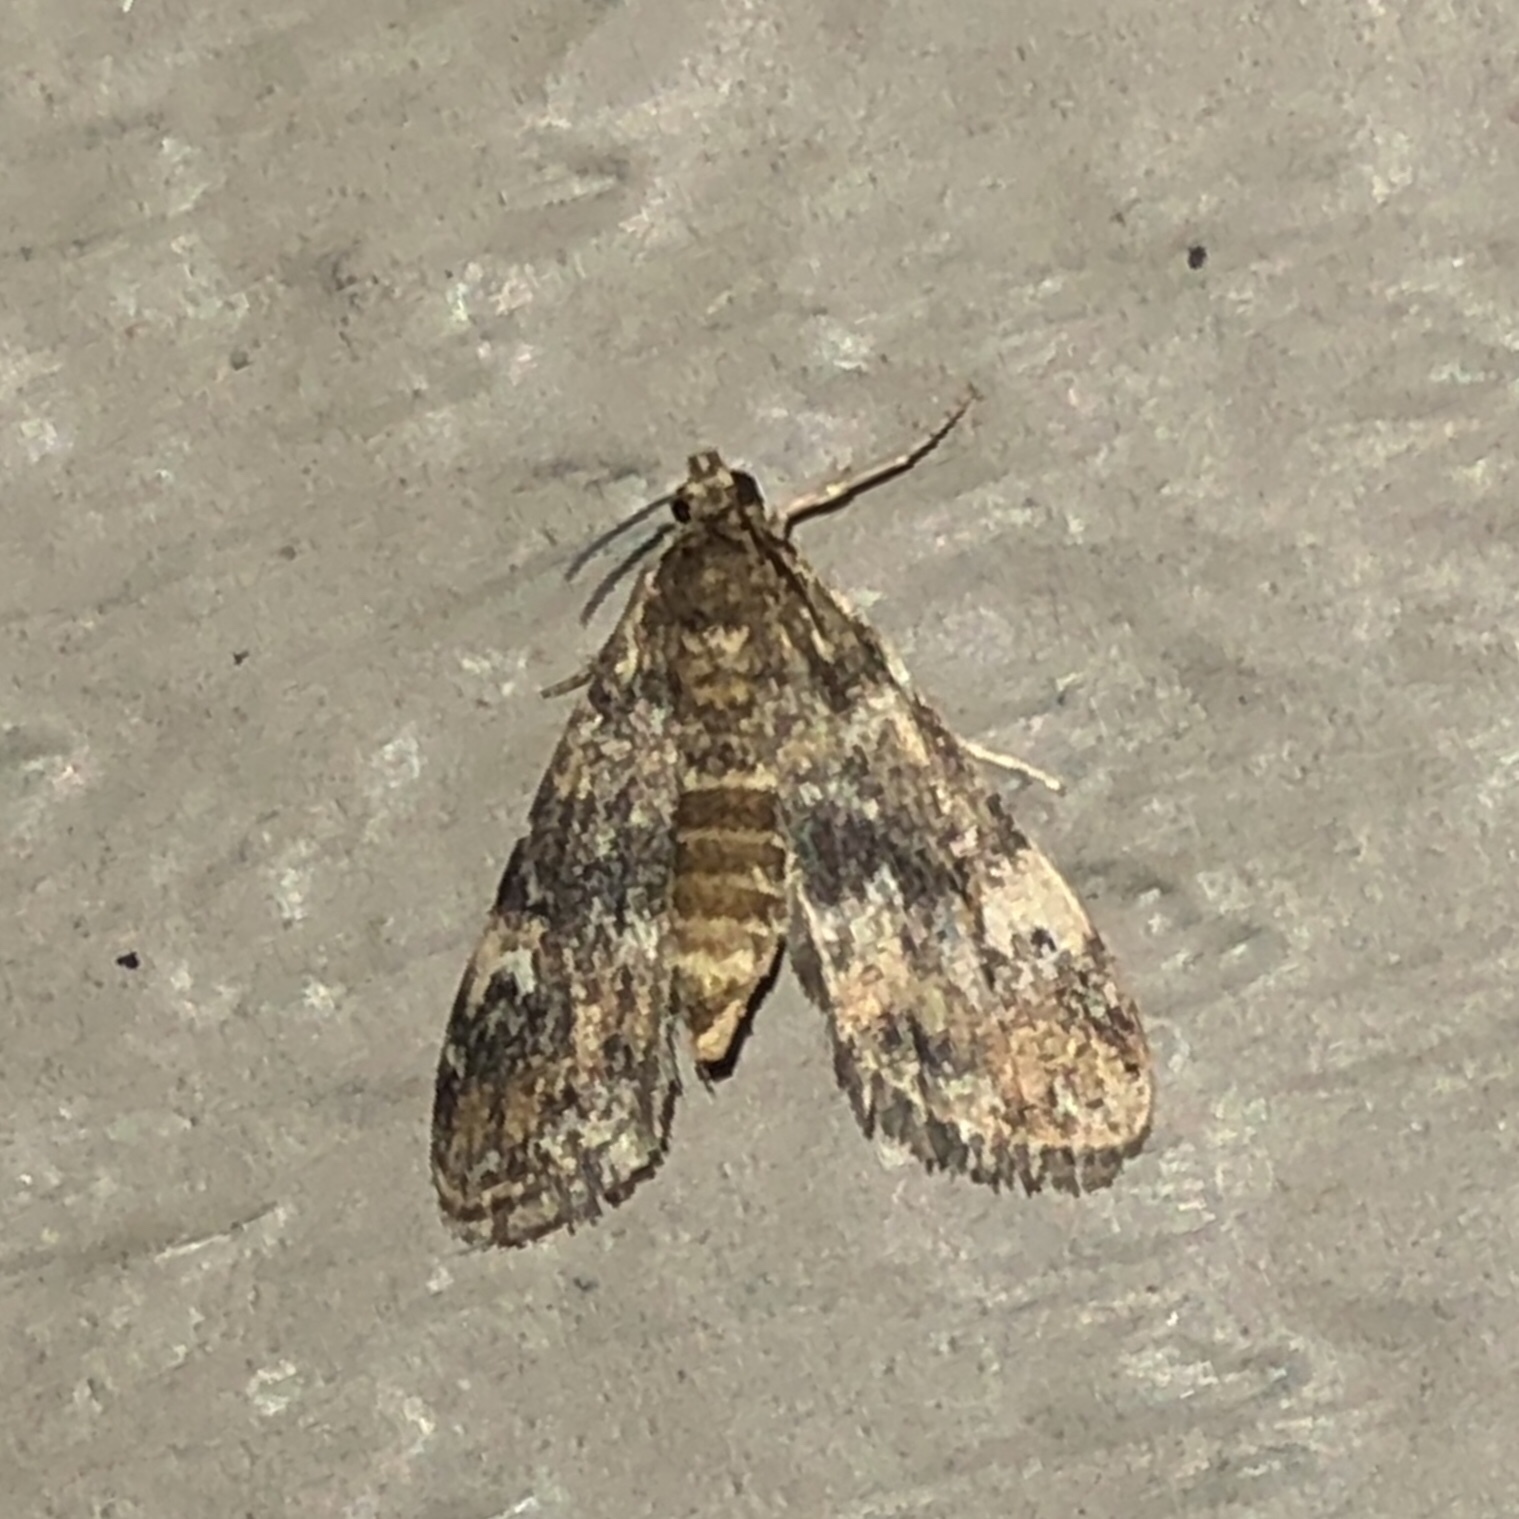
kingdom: Animalia
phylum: Arthropoda
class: Insecta
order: Lepidoptera
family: Crambidae
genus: Elophila
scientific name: Elophila obliteralis
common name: Waterlily leafcutter moth
